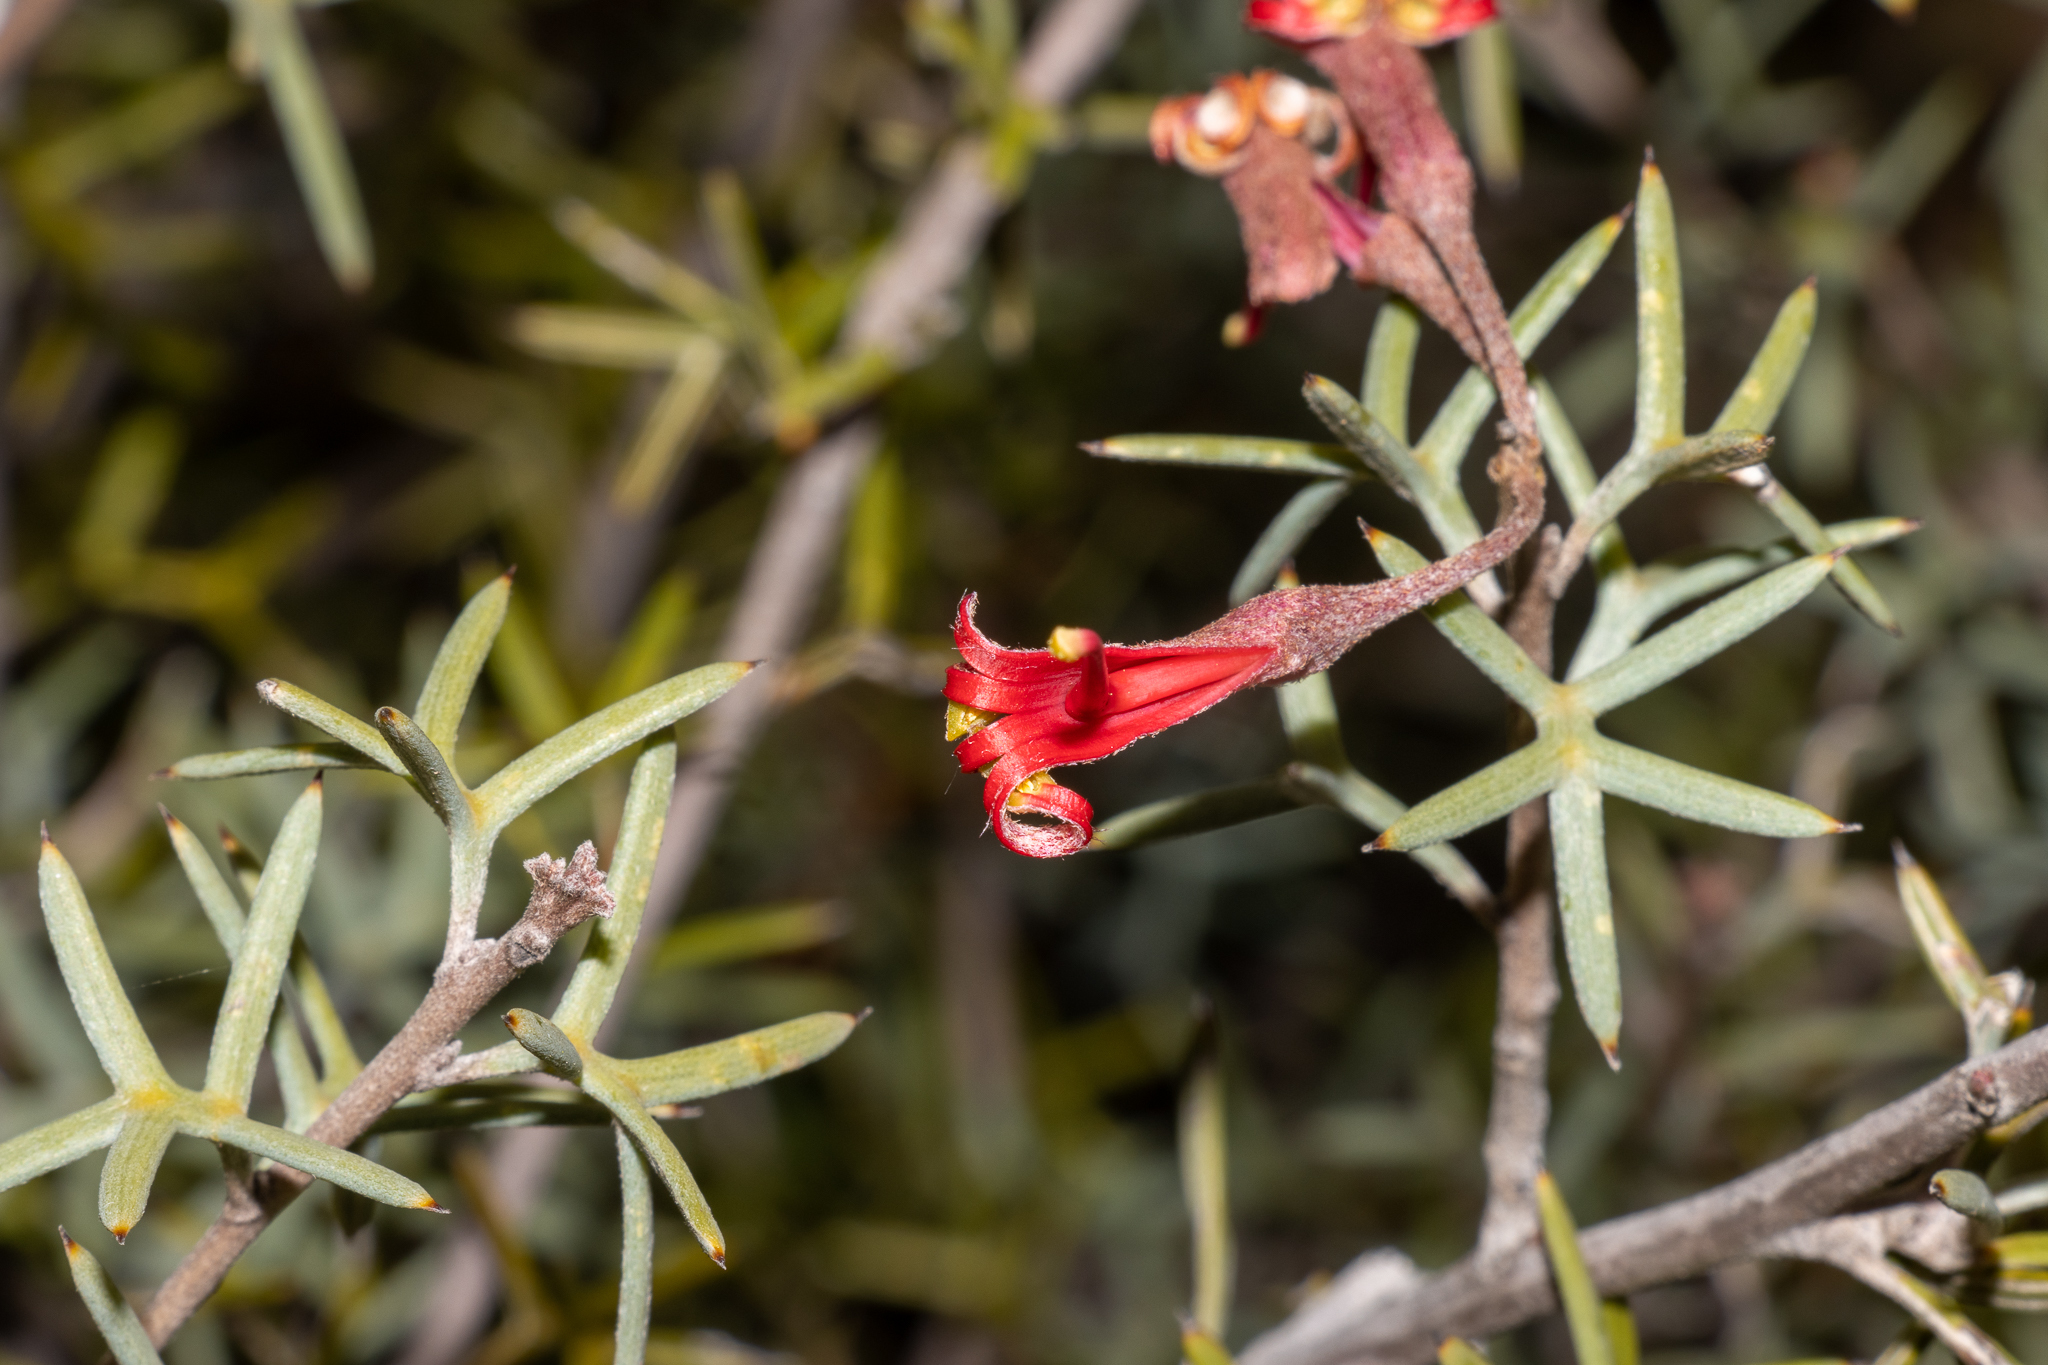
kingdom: Plantae
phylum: Tracheophyta
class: Magnoliopsida
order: Proteales
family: Proteaceae
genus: Grevillea
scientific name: Grevillea huegelii
